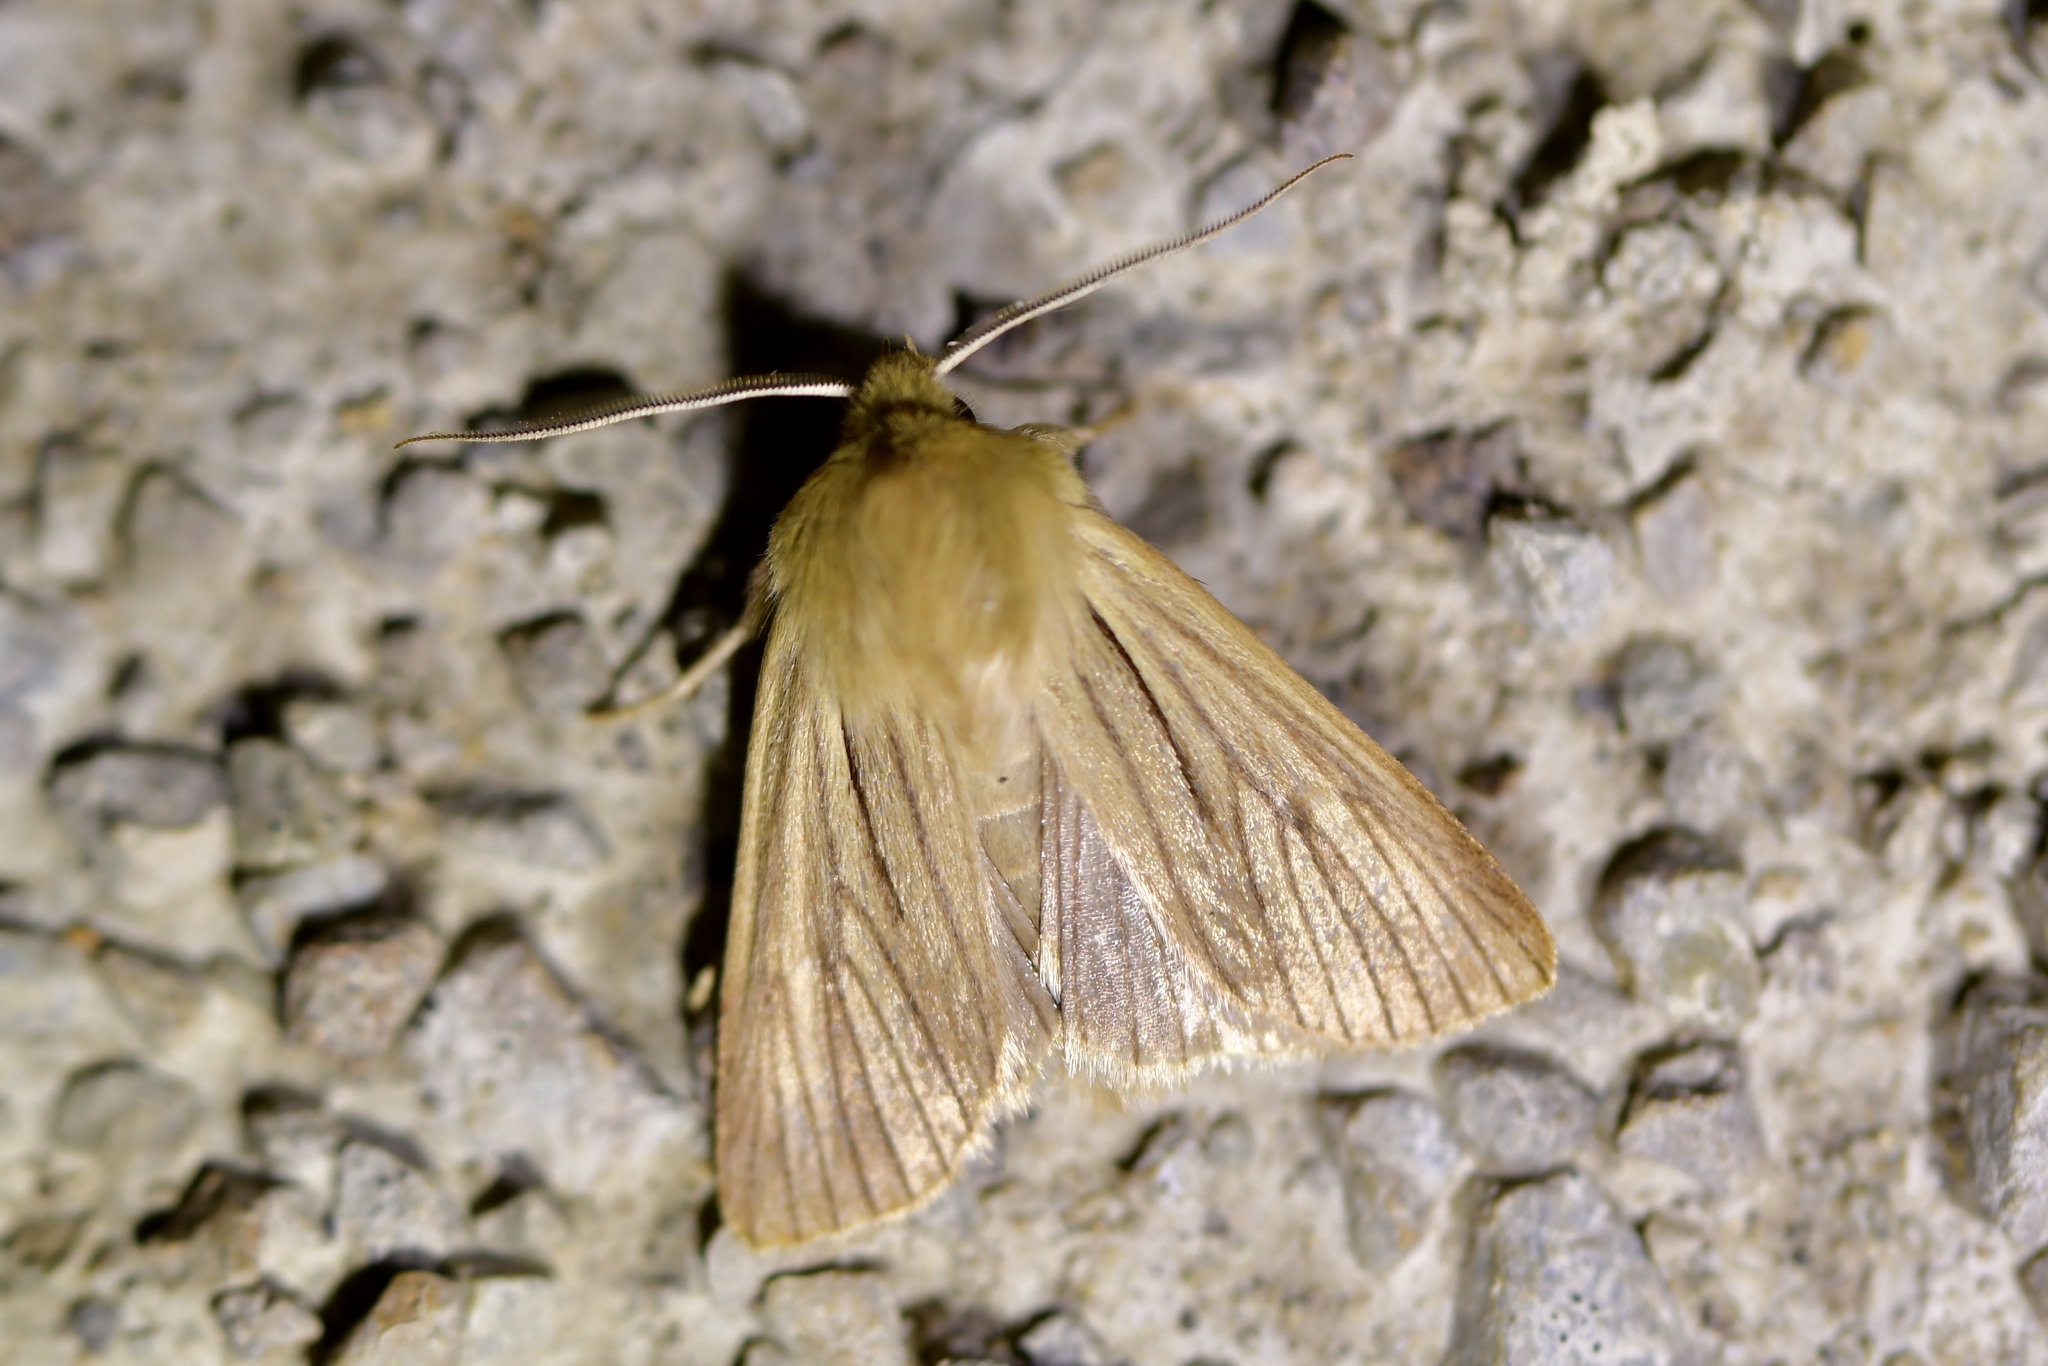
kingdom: Animalia
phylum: Arthropoda
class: Insecta
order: Lepidoptera
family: Noctuidae
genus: Ichneutica
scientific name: Ichneutica
